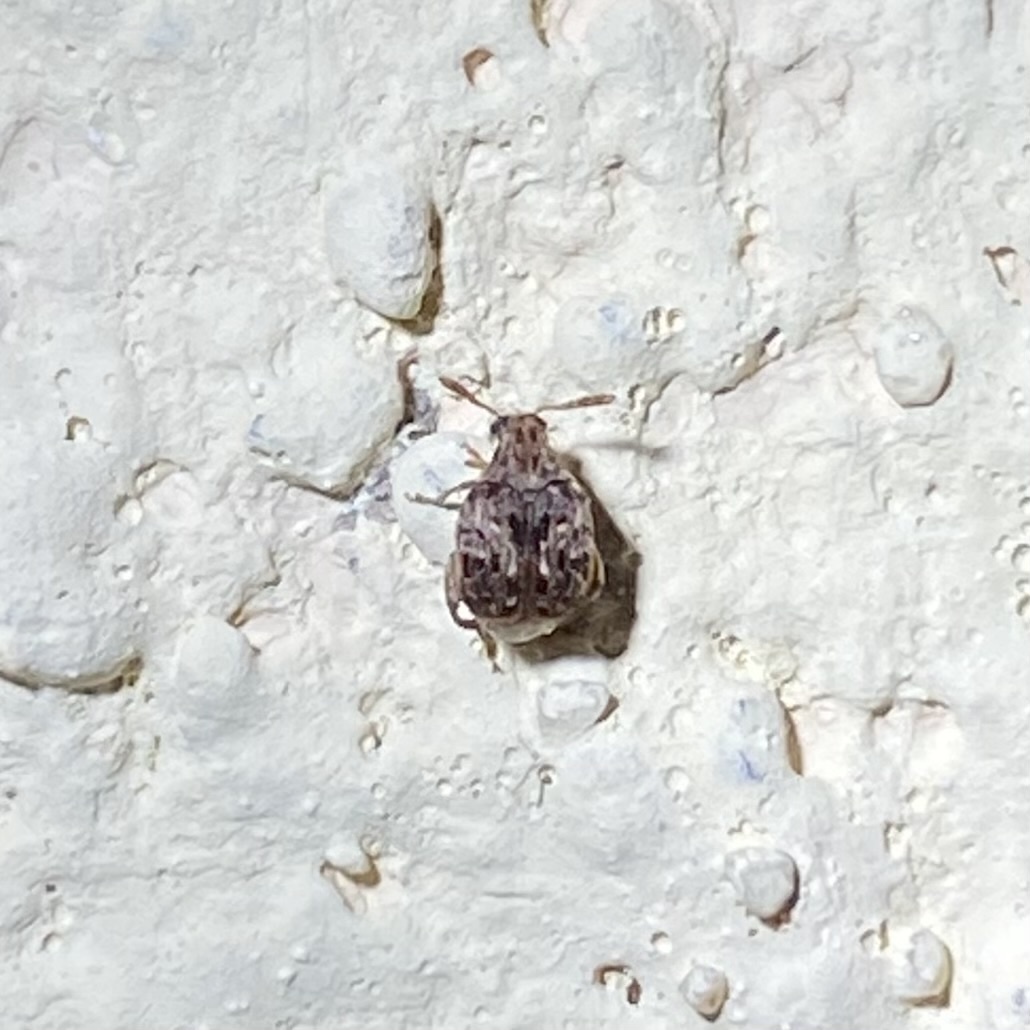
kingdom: Animalia
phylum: Arthropoda
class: Insecta
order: Coleoptera
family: Chrysomelidae
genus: Gibbobruchus
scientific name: Gibbobruchus mimus
